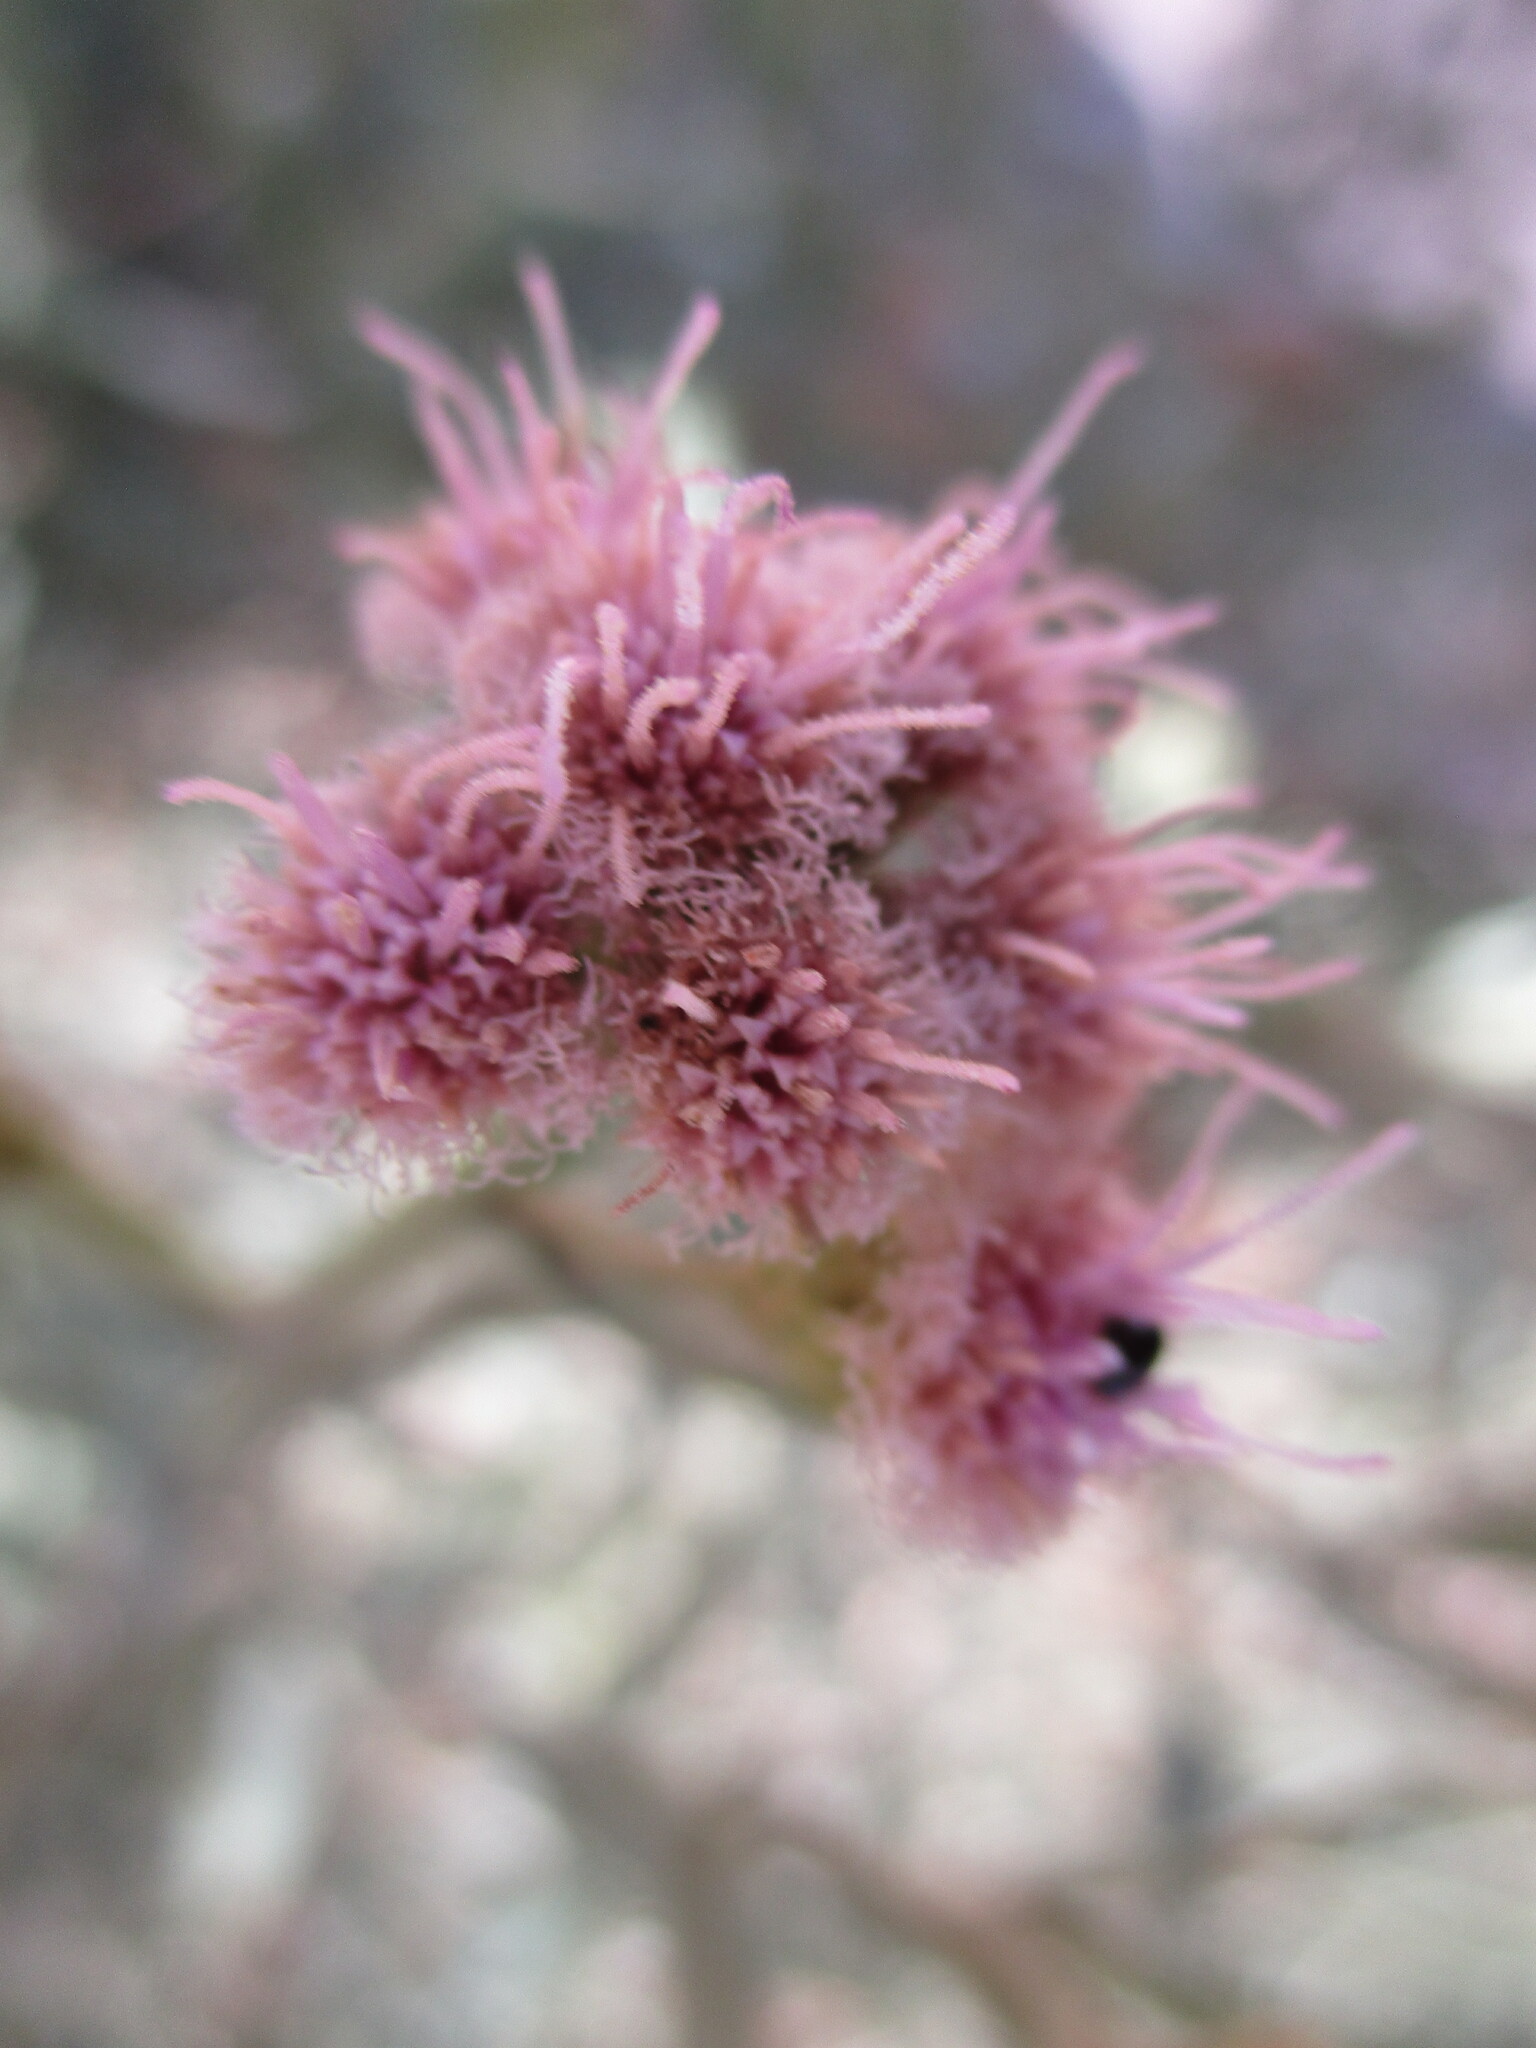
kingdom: Plantae
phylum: Tracheophyta
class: Magnoliopsida
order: Asterales
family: Asteraceae
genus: Litogyne
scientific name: Litogyne gariepina
